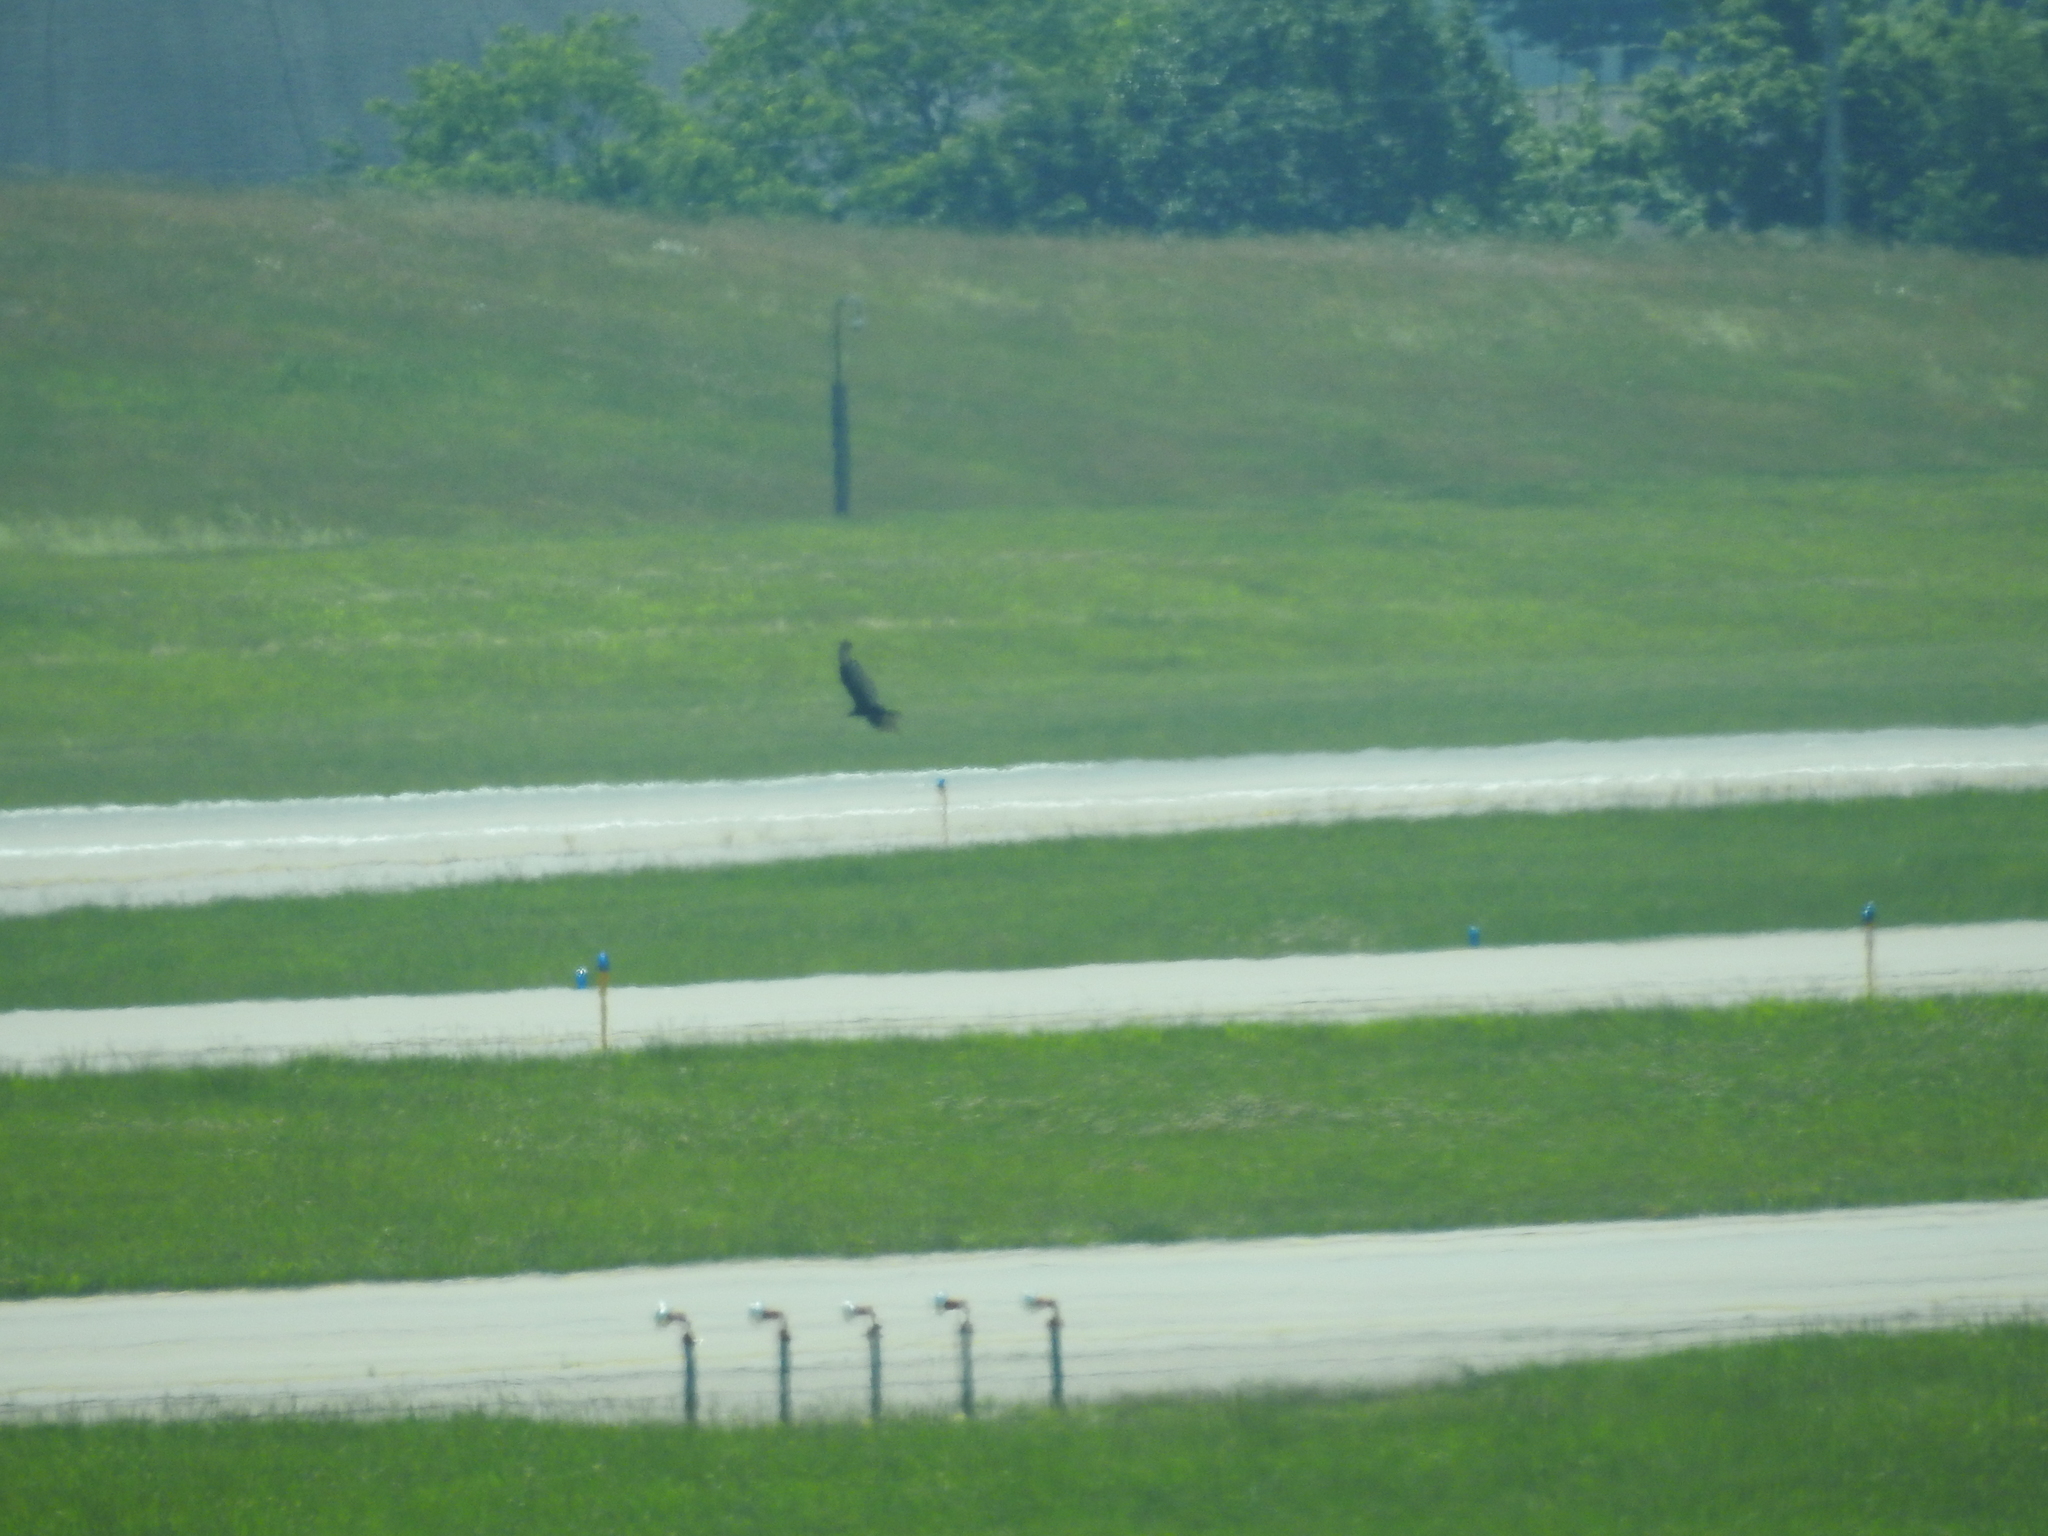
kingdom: Animalia
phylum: Chordata
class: Aves
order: Accipitriformes
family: Cathartidae
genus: Cathartes
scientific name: Cathartes aura
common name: Turkey vulture
